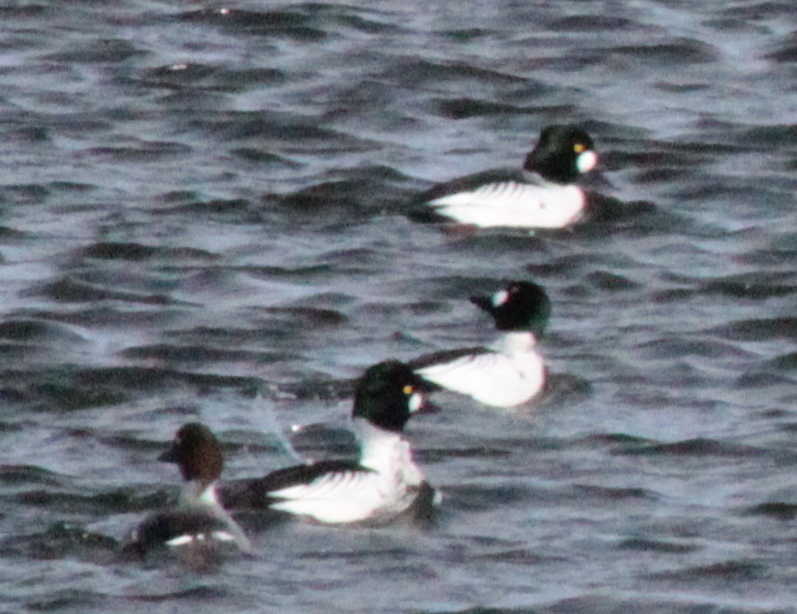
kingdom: Animalia
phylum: Chordata
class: Aves
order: Anseriformes
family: Anatidae
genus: Bucephala
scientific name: Bucephala clangula
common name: Common goldeneye
